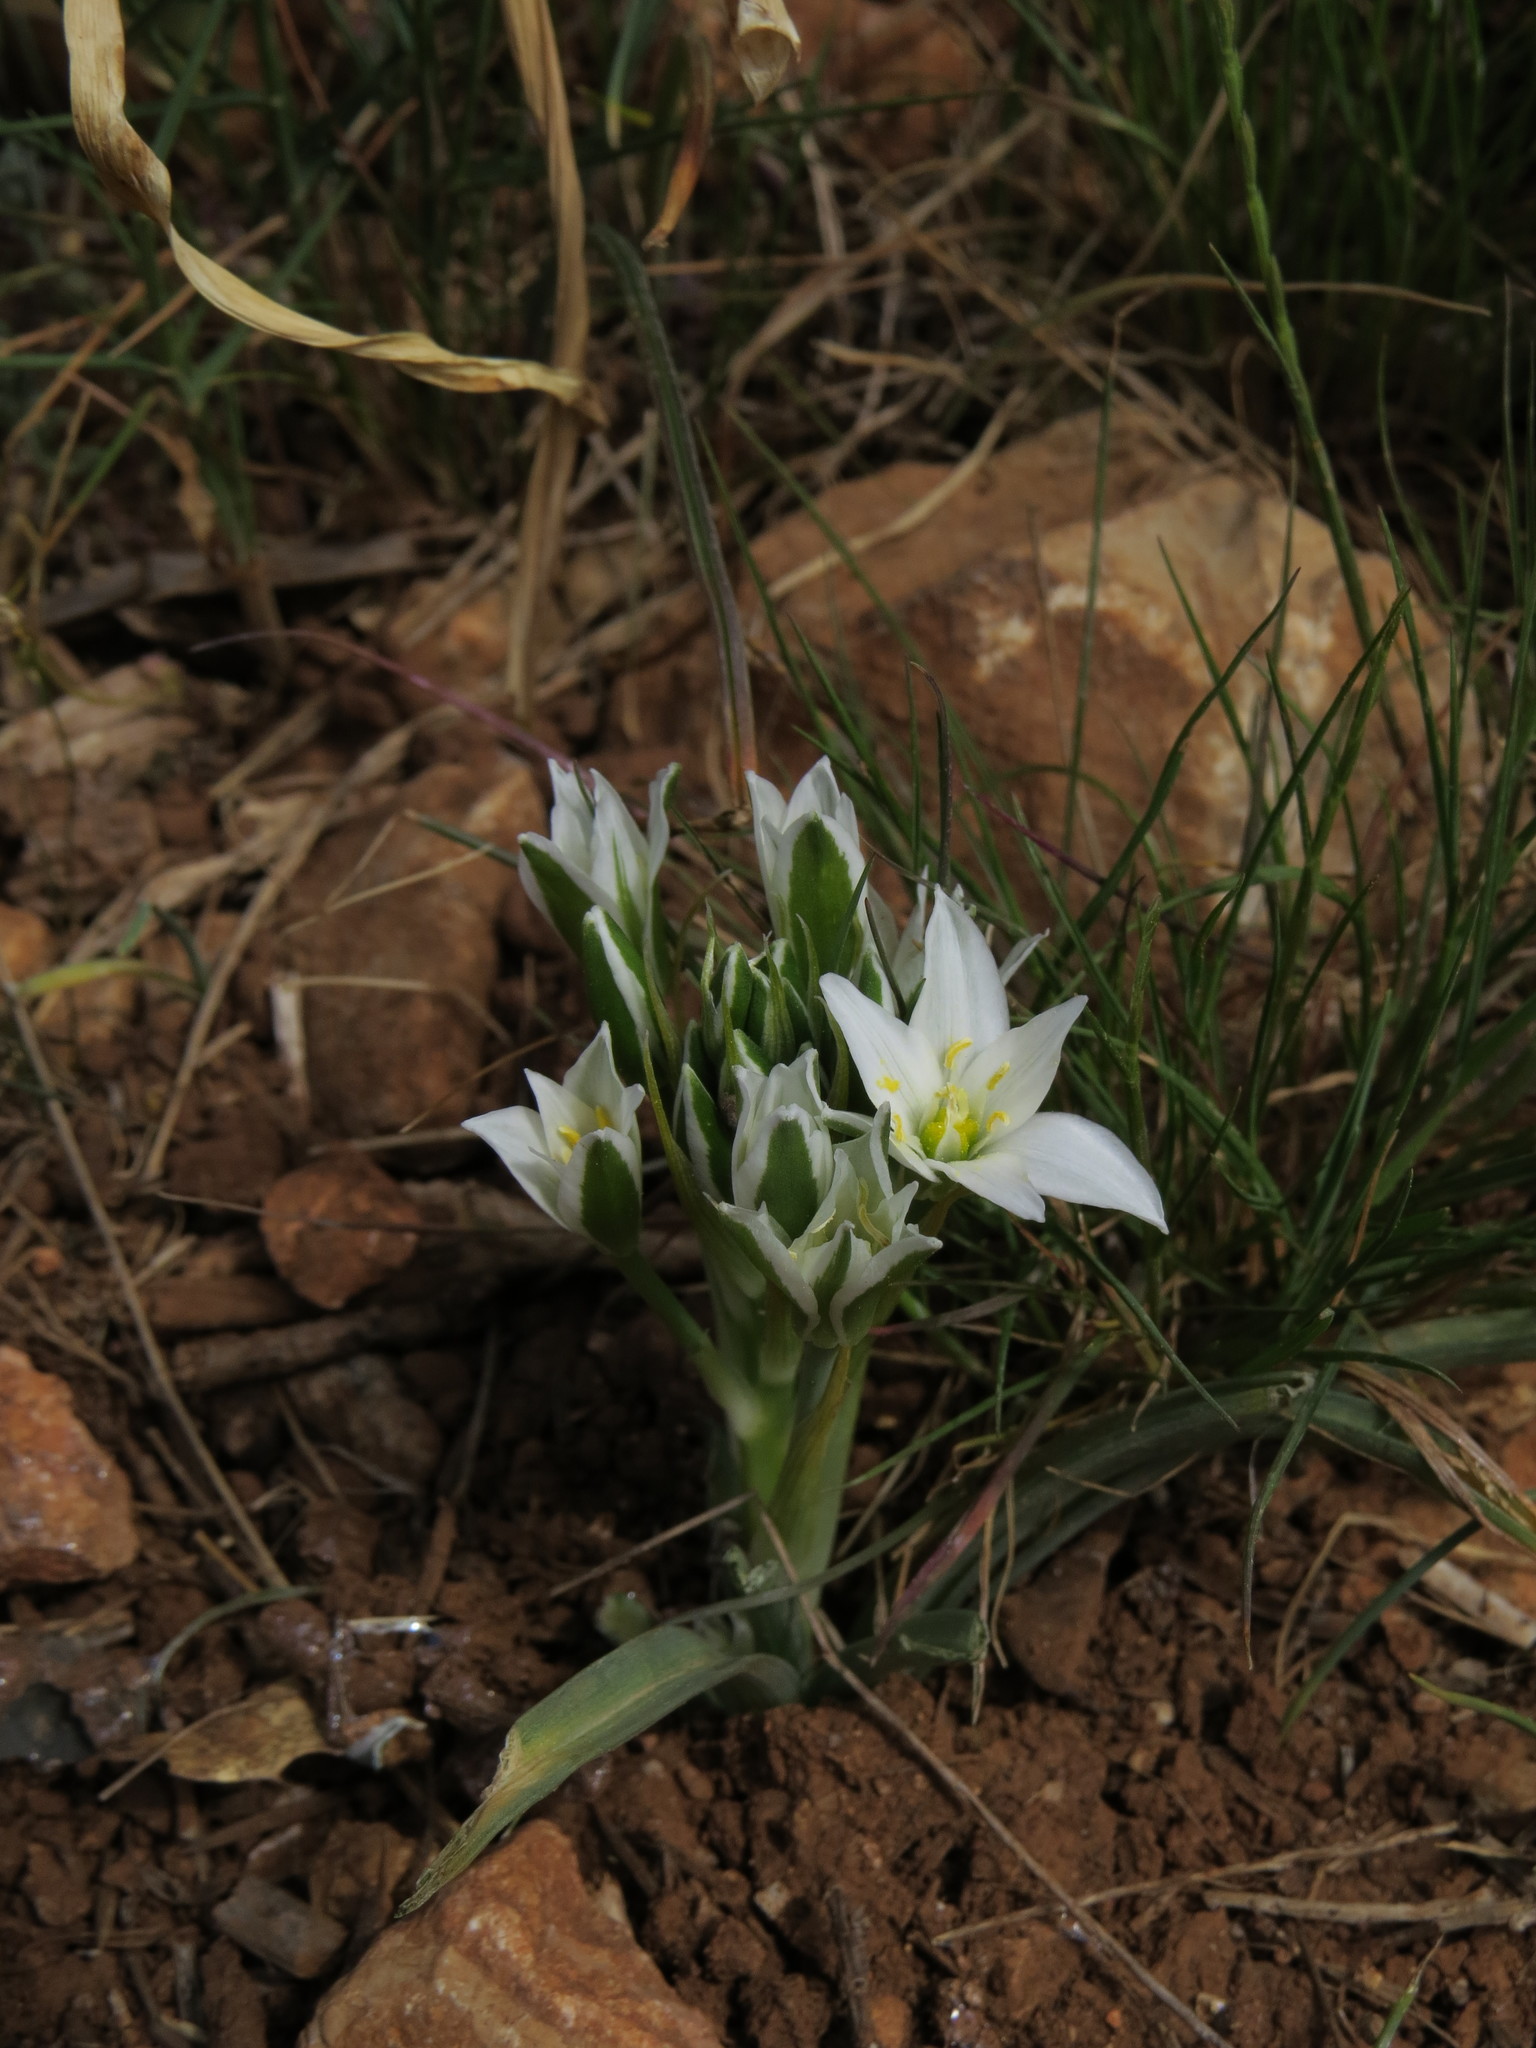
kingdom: Plantae
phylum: Tracheophyta
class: Liliopsida
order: Asparagales
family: Asparagaceae
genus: Ornithogalum
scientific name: Ornithogalum umbellatum
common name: Garden star-of-bethlehem
